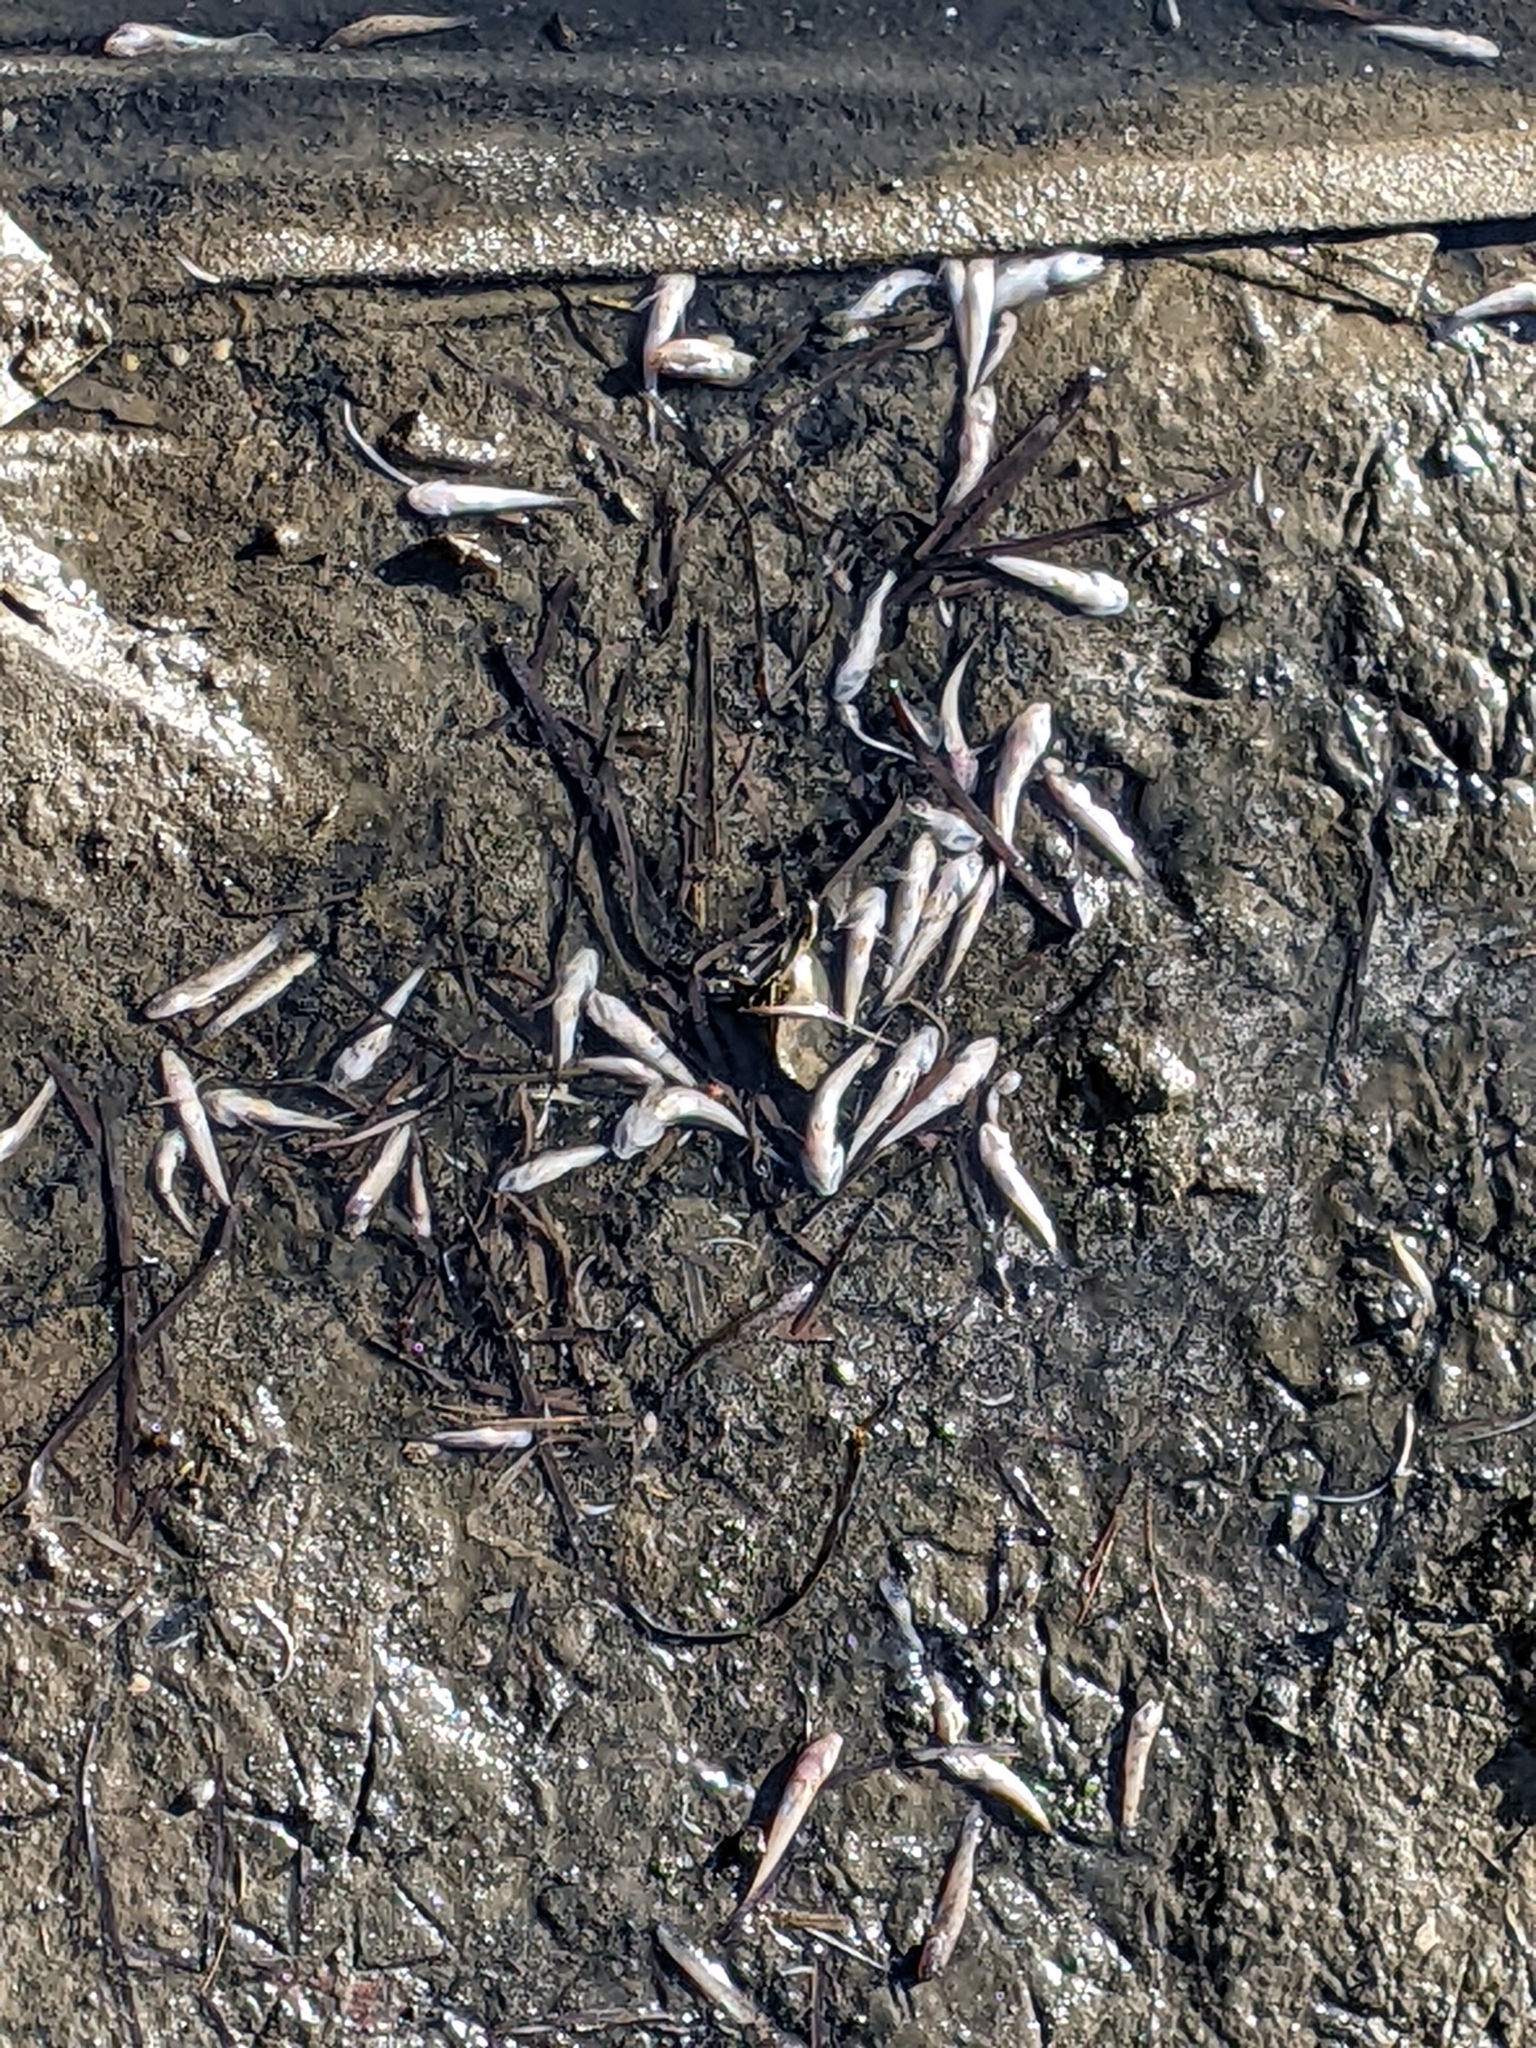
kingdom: Animalia
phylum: Chordata
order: Perciformes
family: Gobiidae
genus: Acanthogobius
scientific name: Acanthogobius flavimanus
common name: Yellowfin goby
